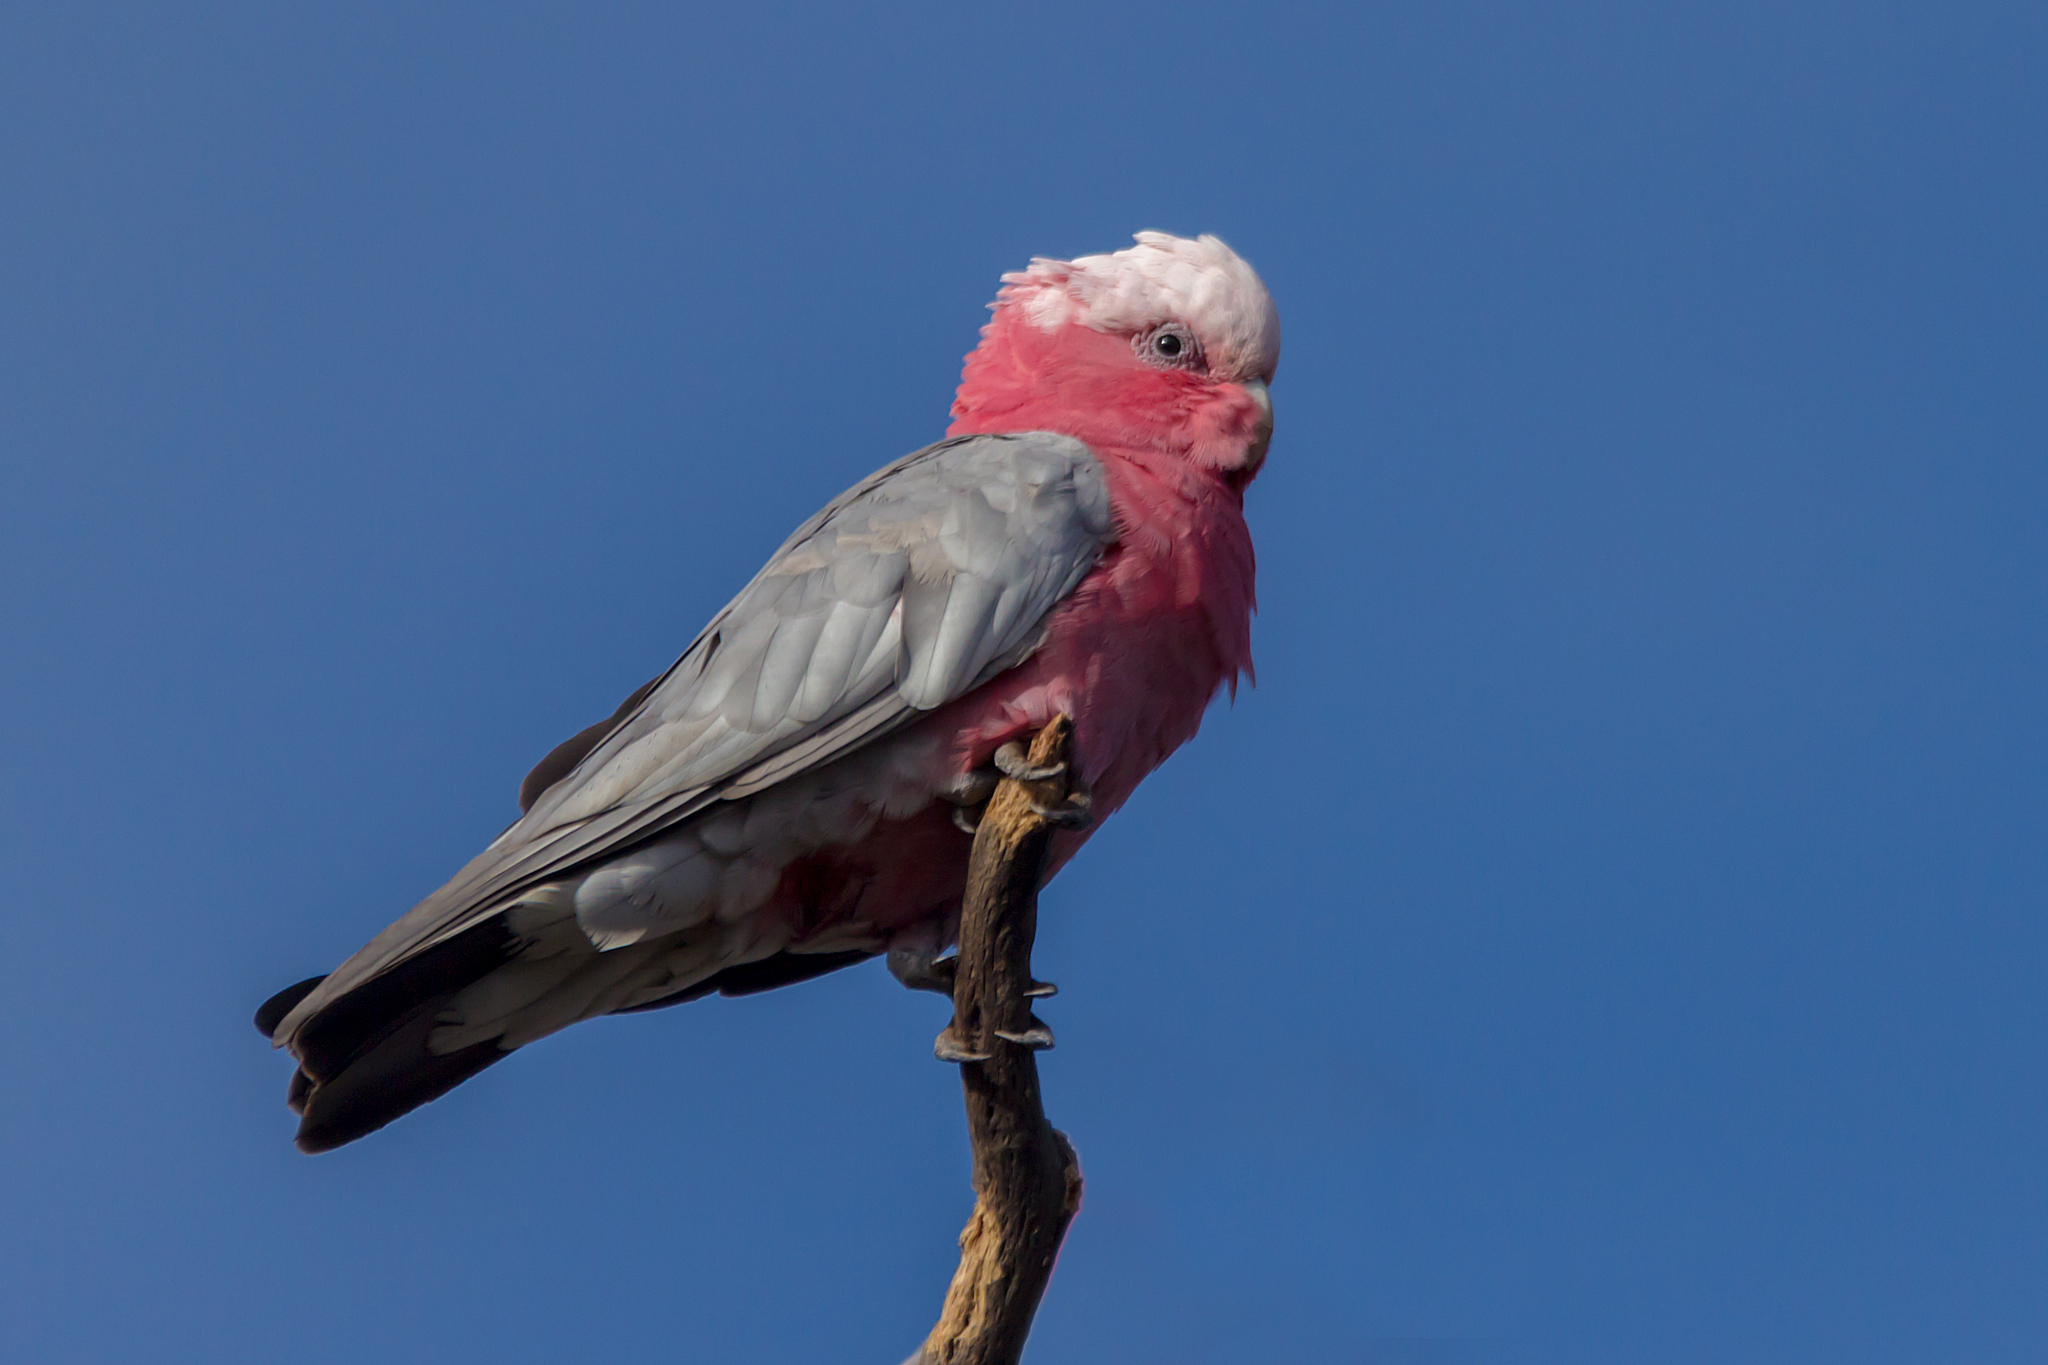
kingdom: Animalia
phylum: Chordata
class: Aves
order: Psittaciformes
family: Psittacidae
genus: Eolophus
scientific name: Eolophus roseicapilla
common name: Galah
